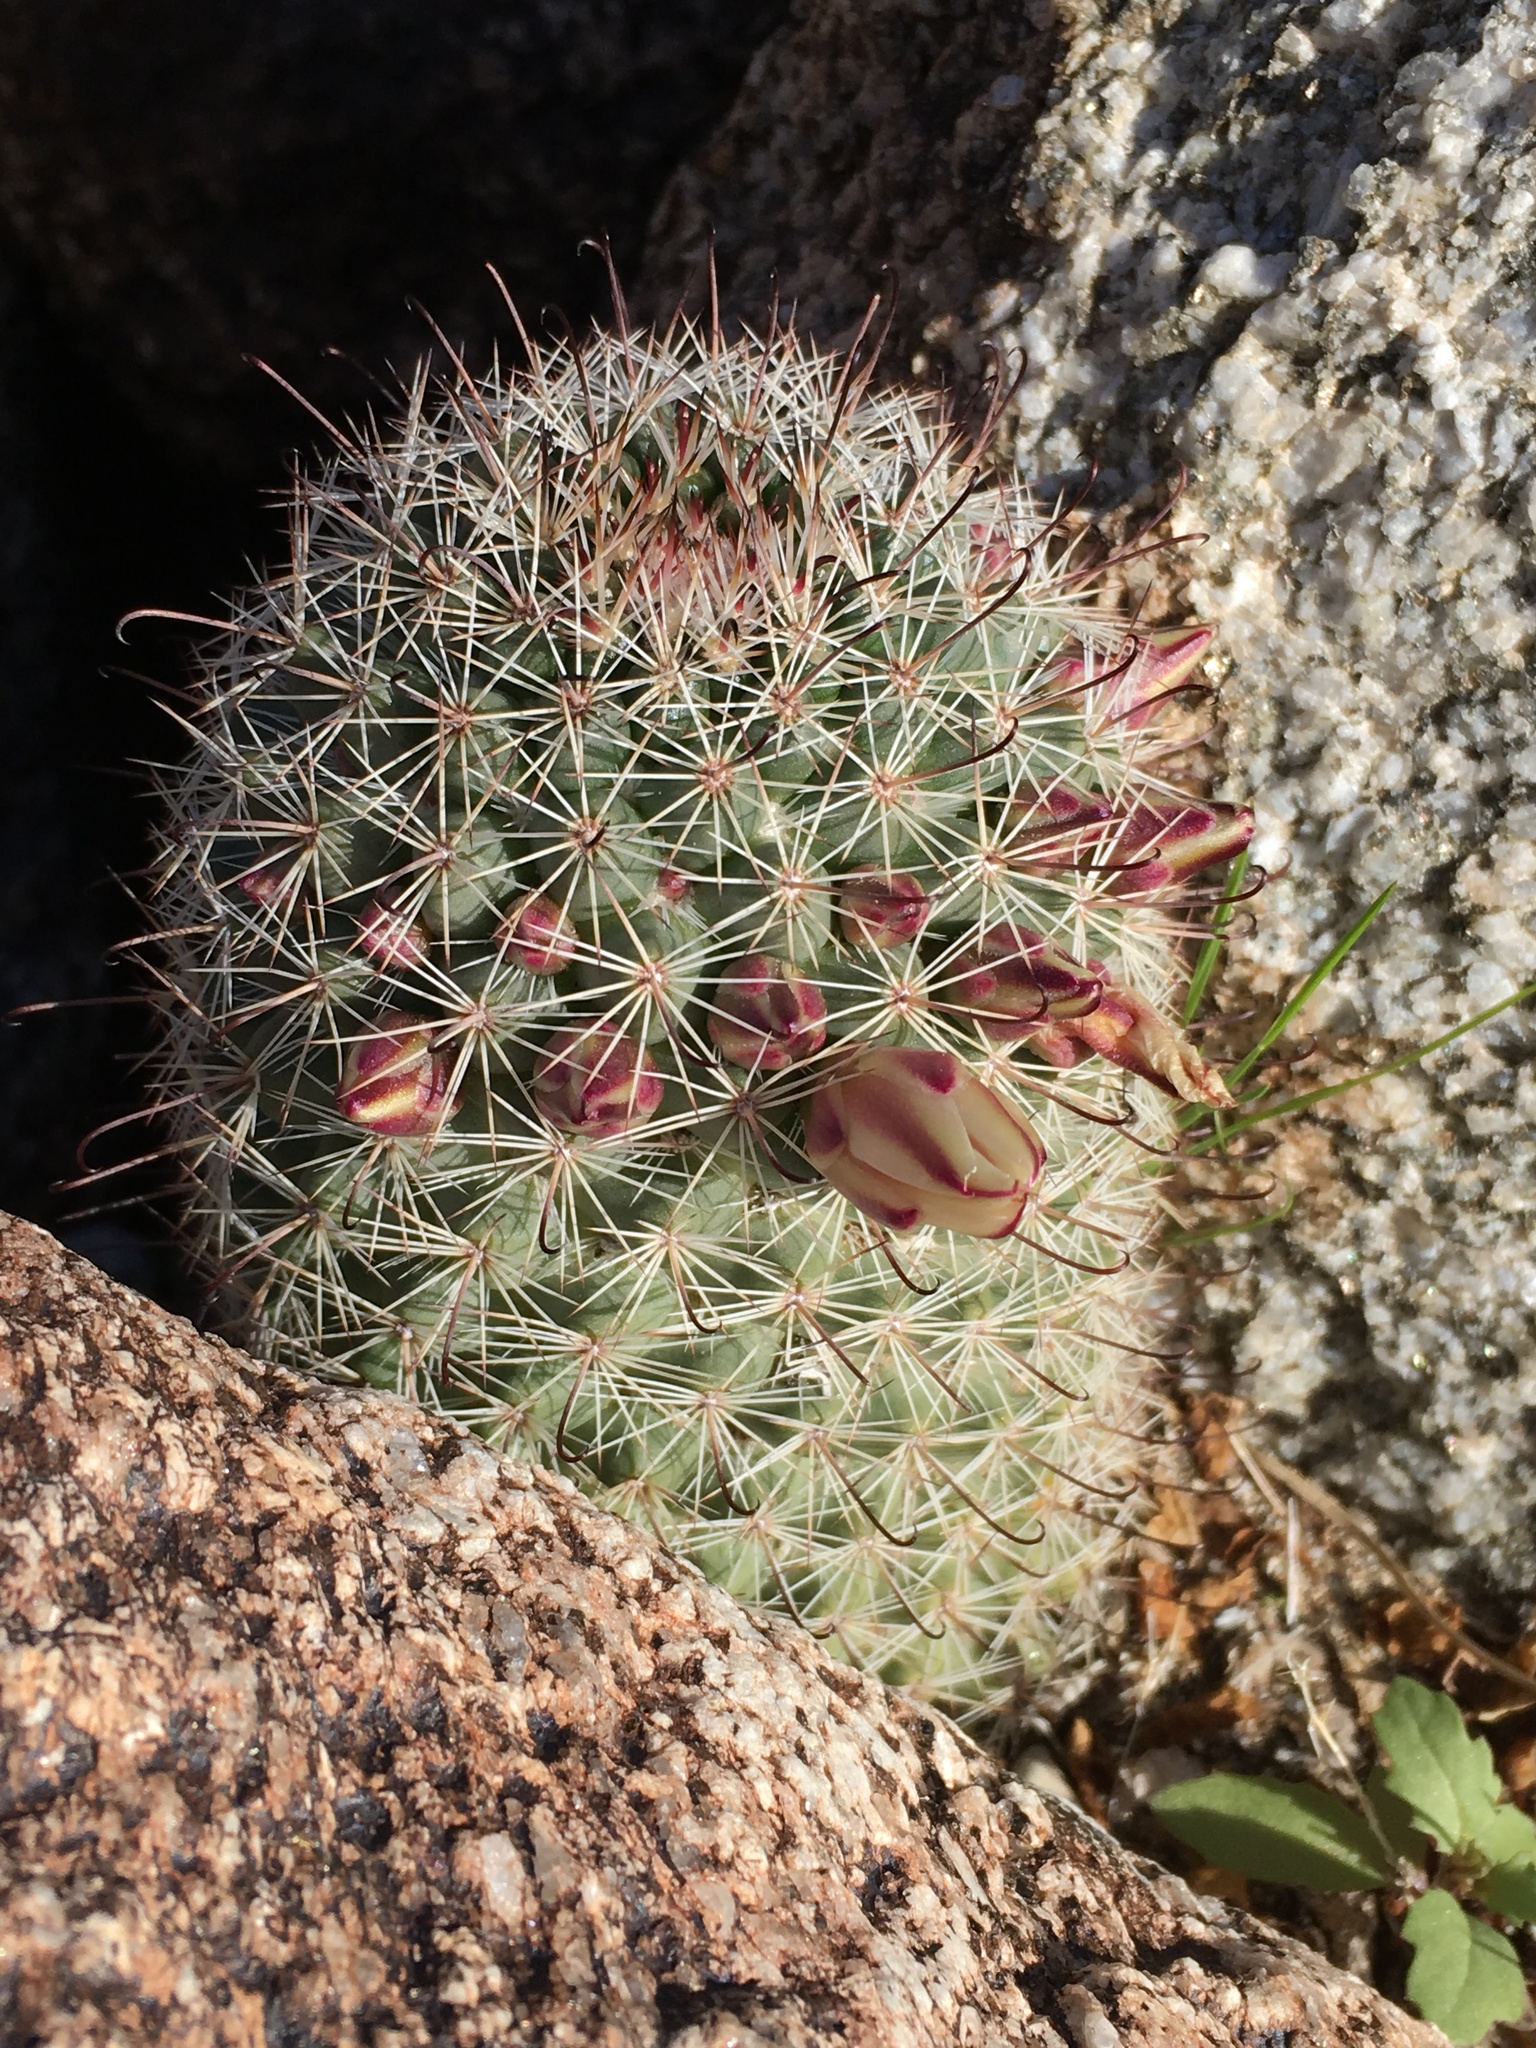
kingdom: Plantae
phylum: Tracheophyta
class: Magnoliopsida
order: Caryophyllales
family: Cactaceae
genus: Cochemiea
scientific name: Cochemiea dioica
